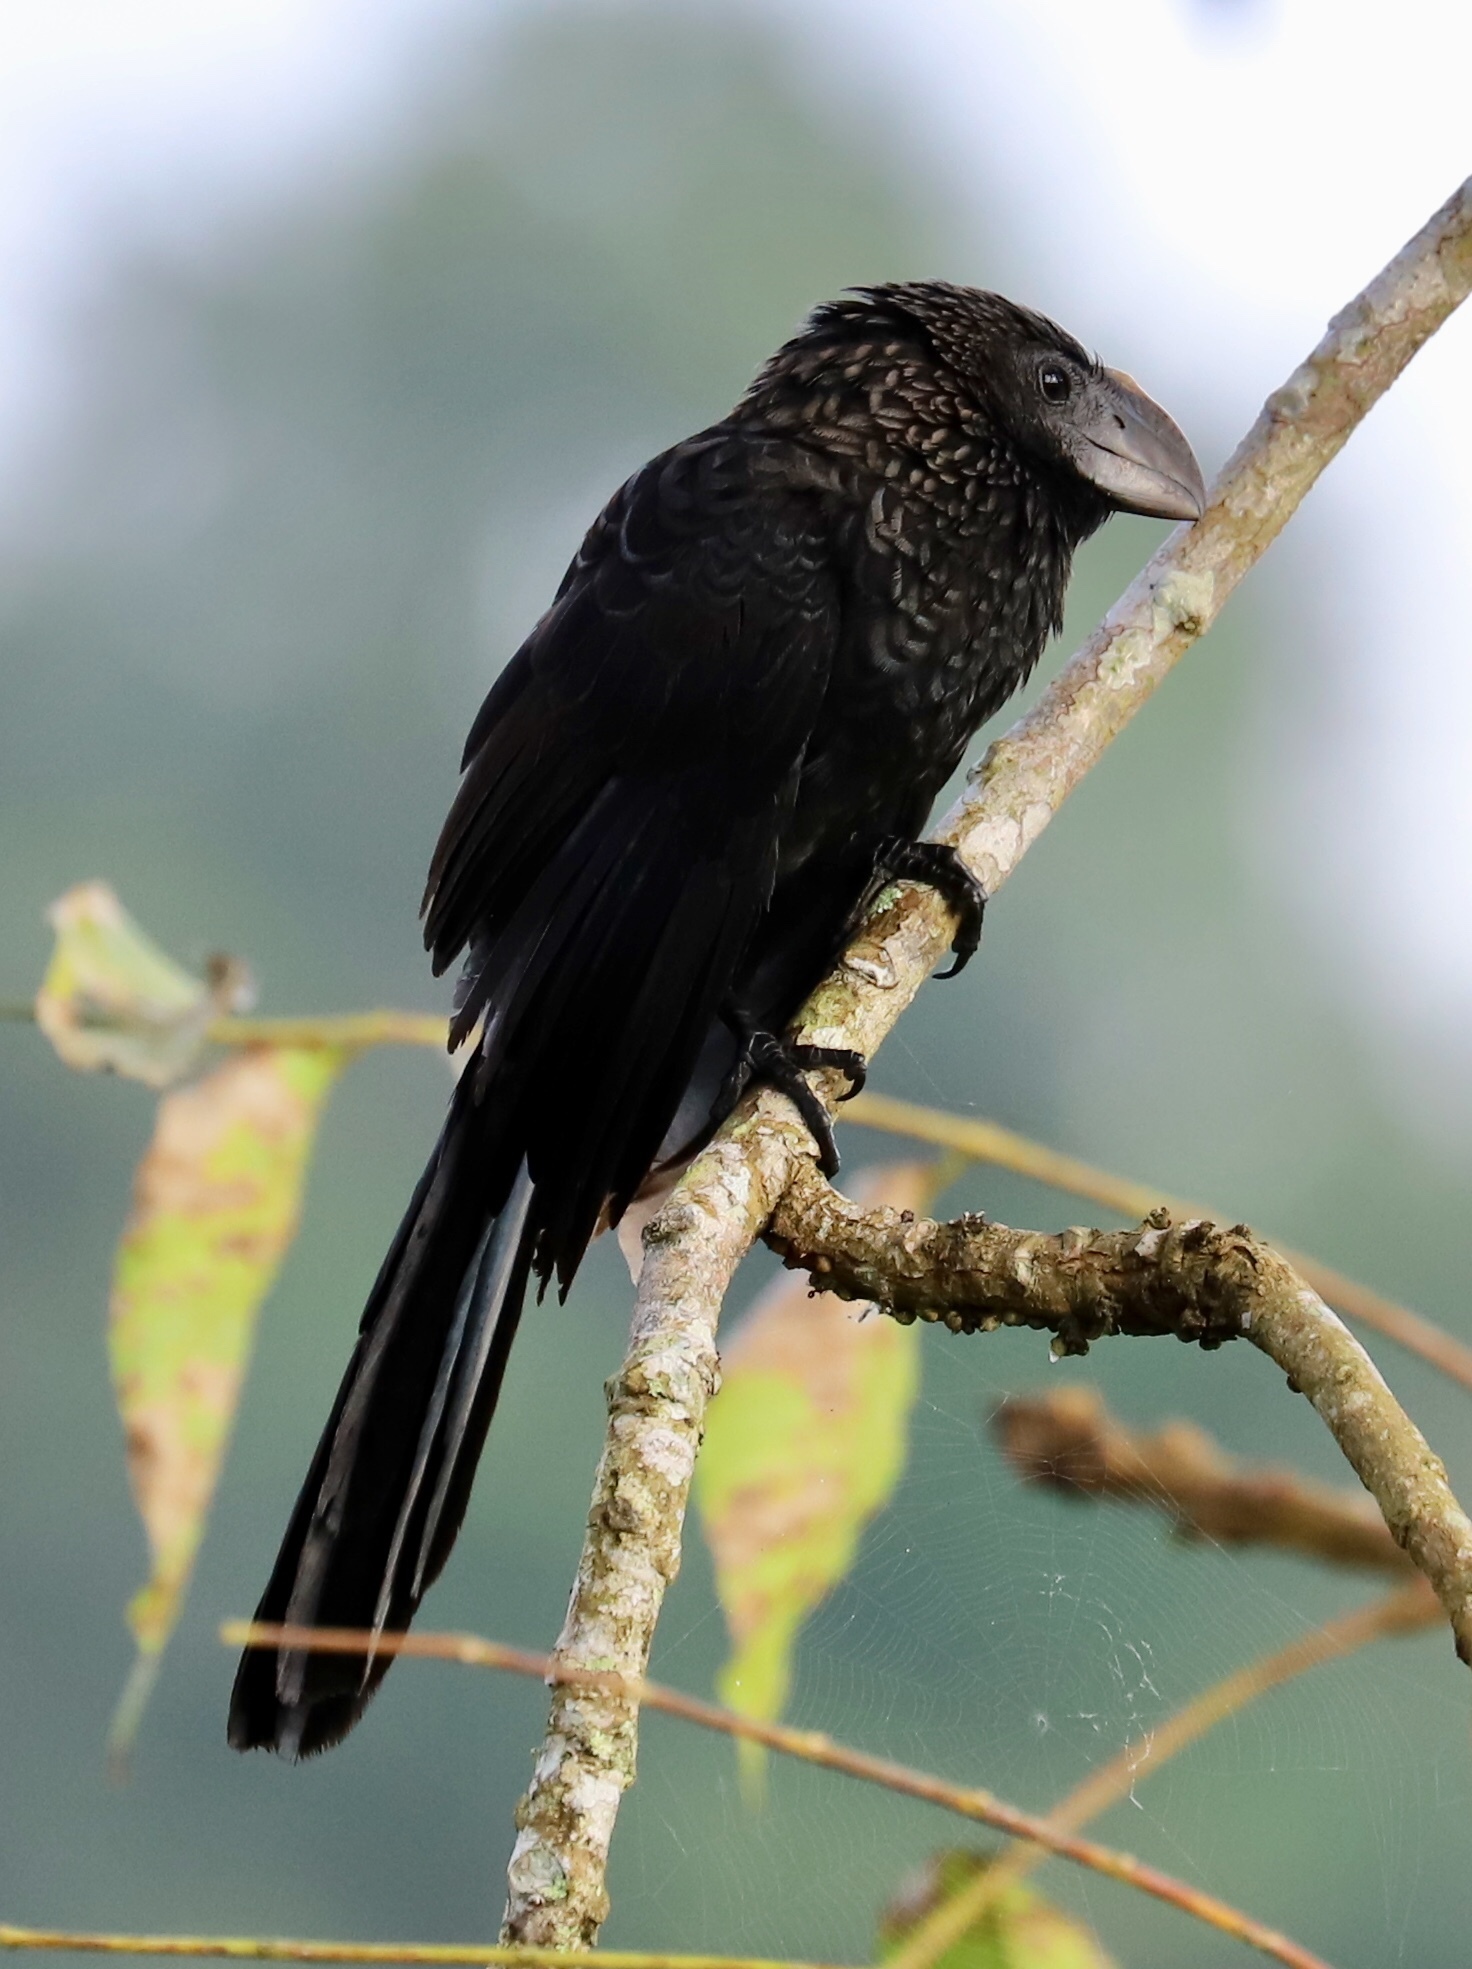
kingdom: Animalia
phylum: Chordata
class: Aves
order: Cuculiformes
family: Cuculidae
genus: Crotophaga
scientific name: Crotophaga ani
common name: Smooth-billed ani
